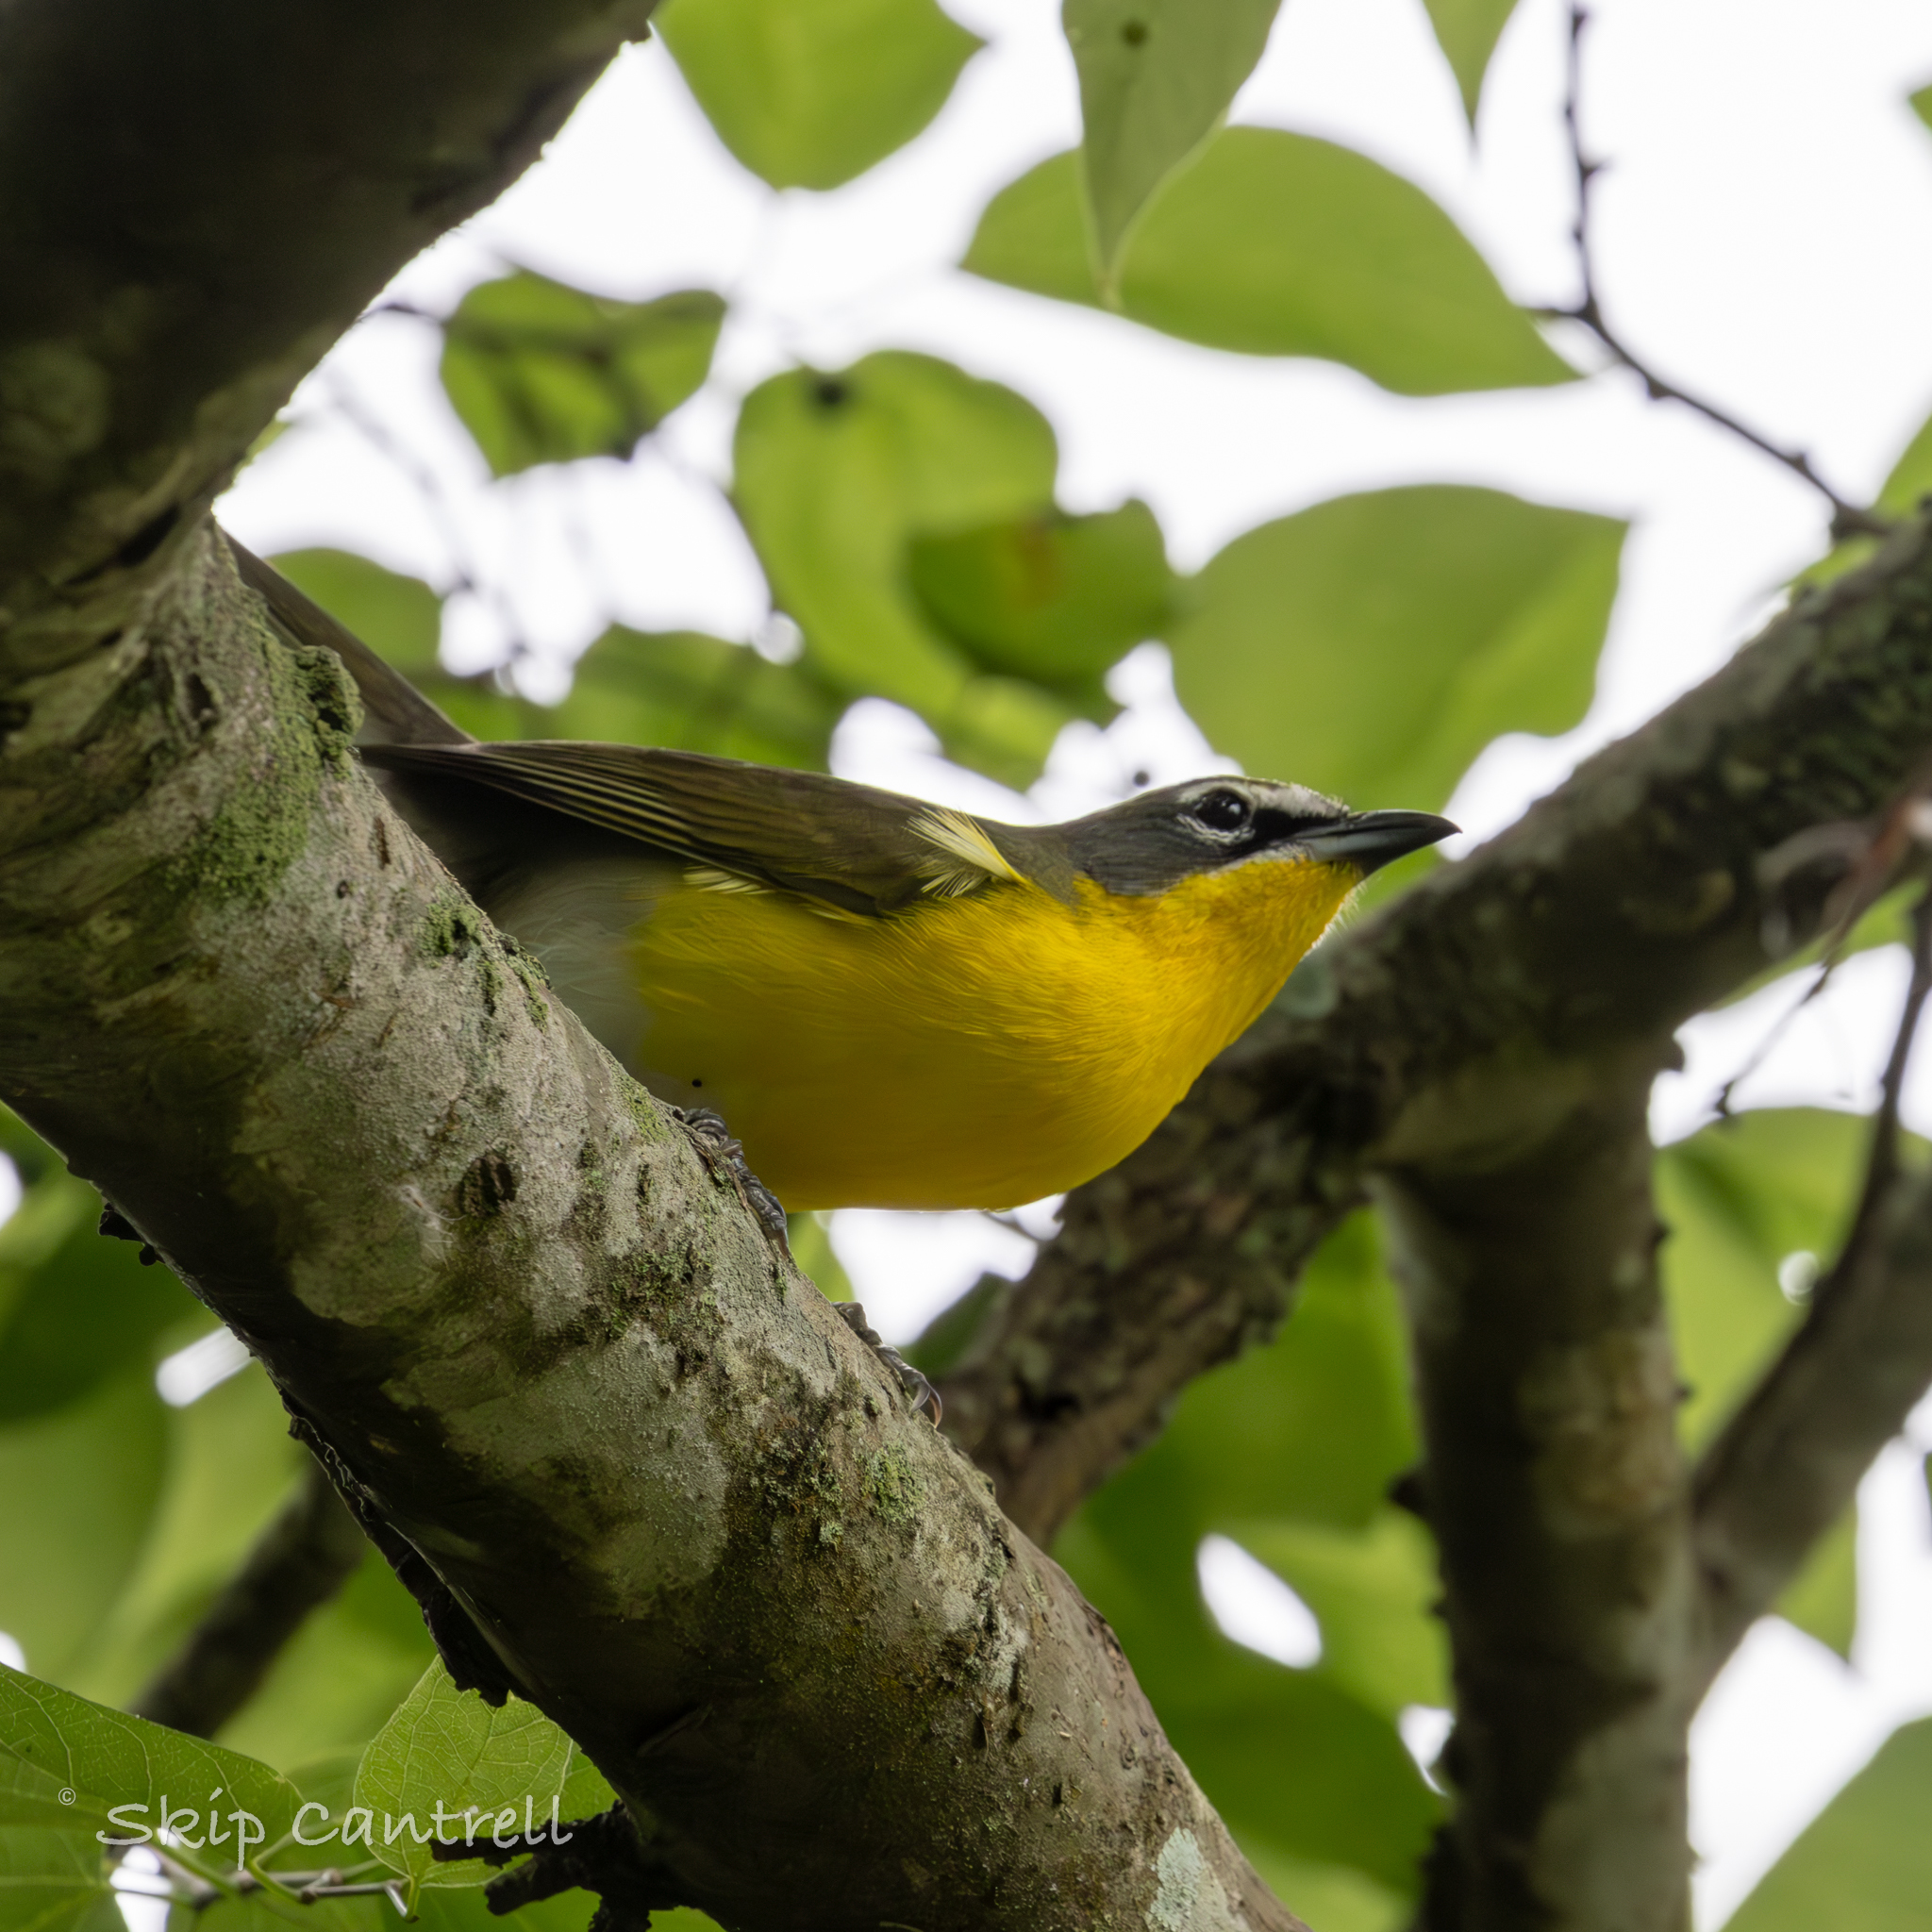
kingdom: Animalia
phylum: Chordata
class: Aves
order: Passeriformes
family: Parulidae
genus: Icteria
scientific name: Icteria virens
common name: Yellow-breasted chat
